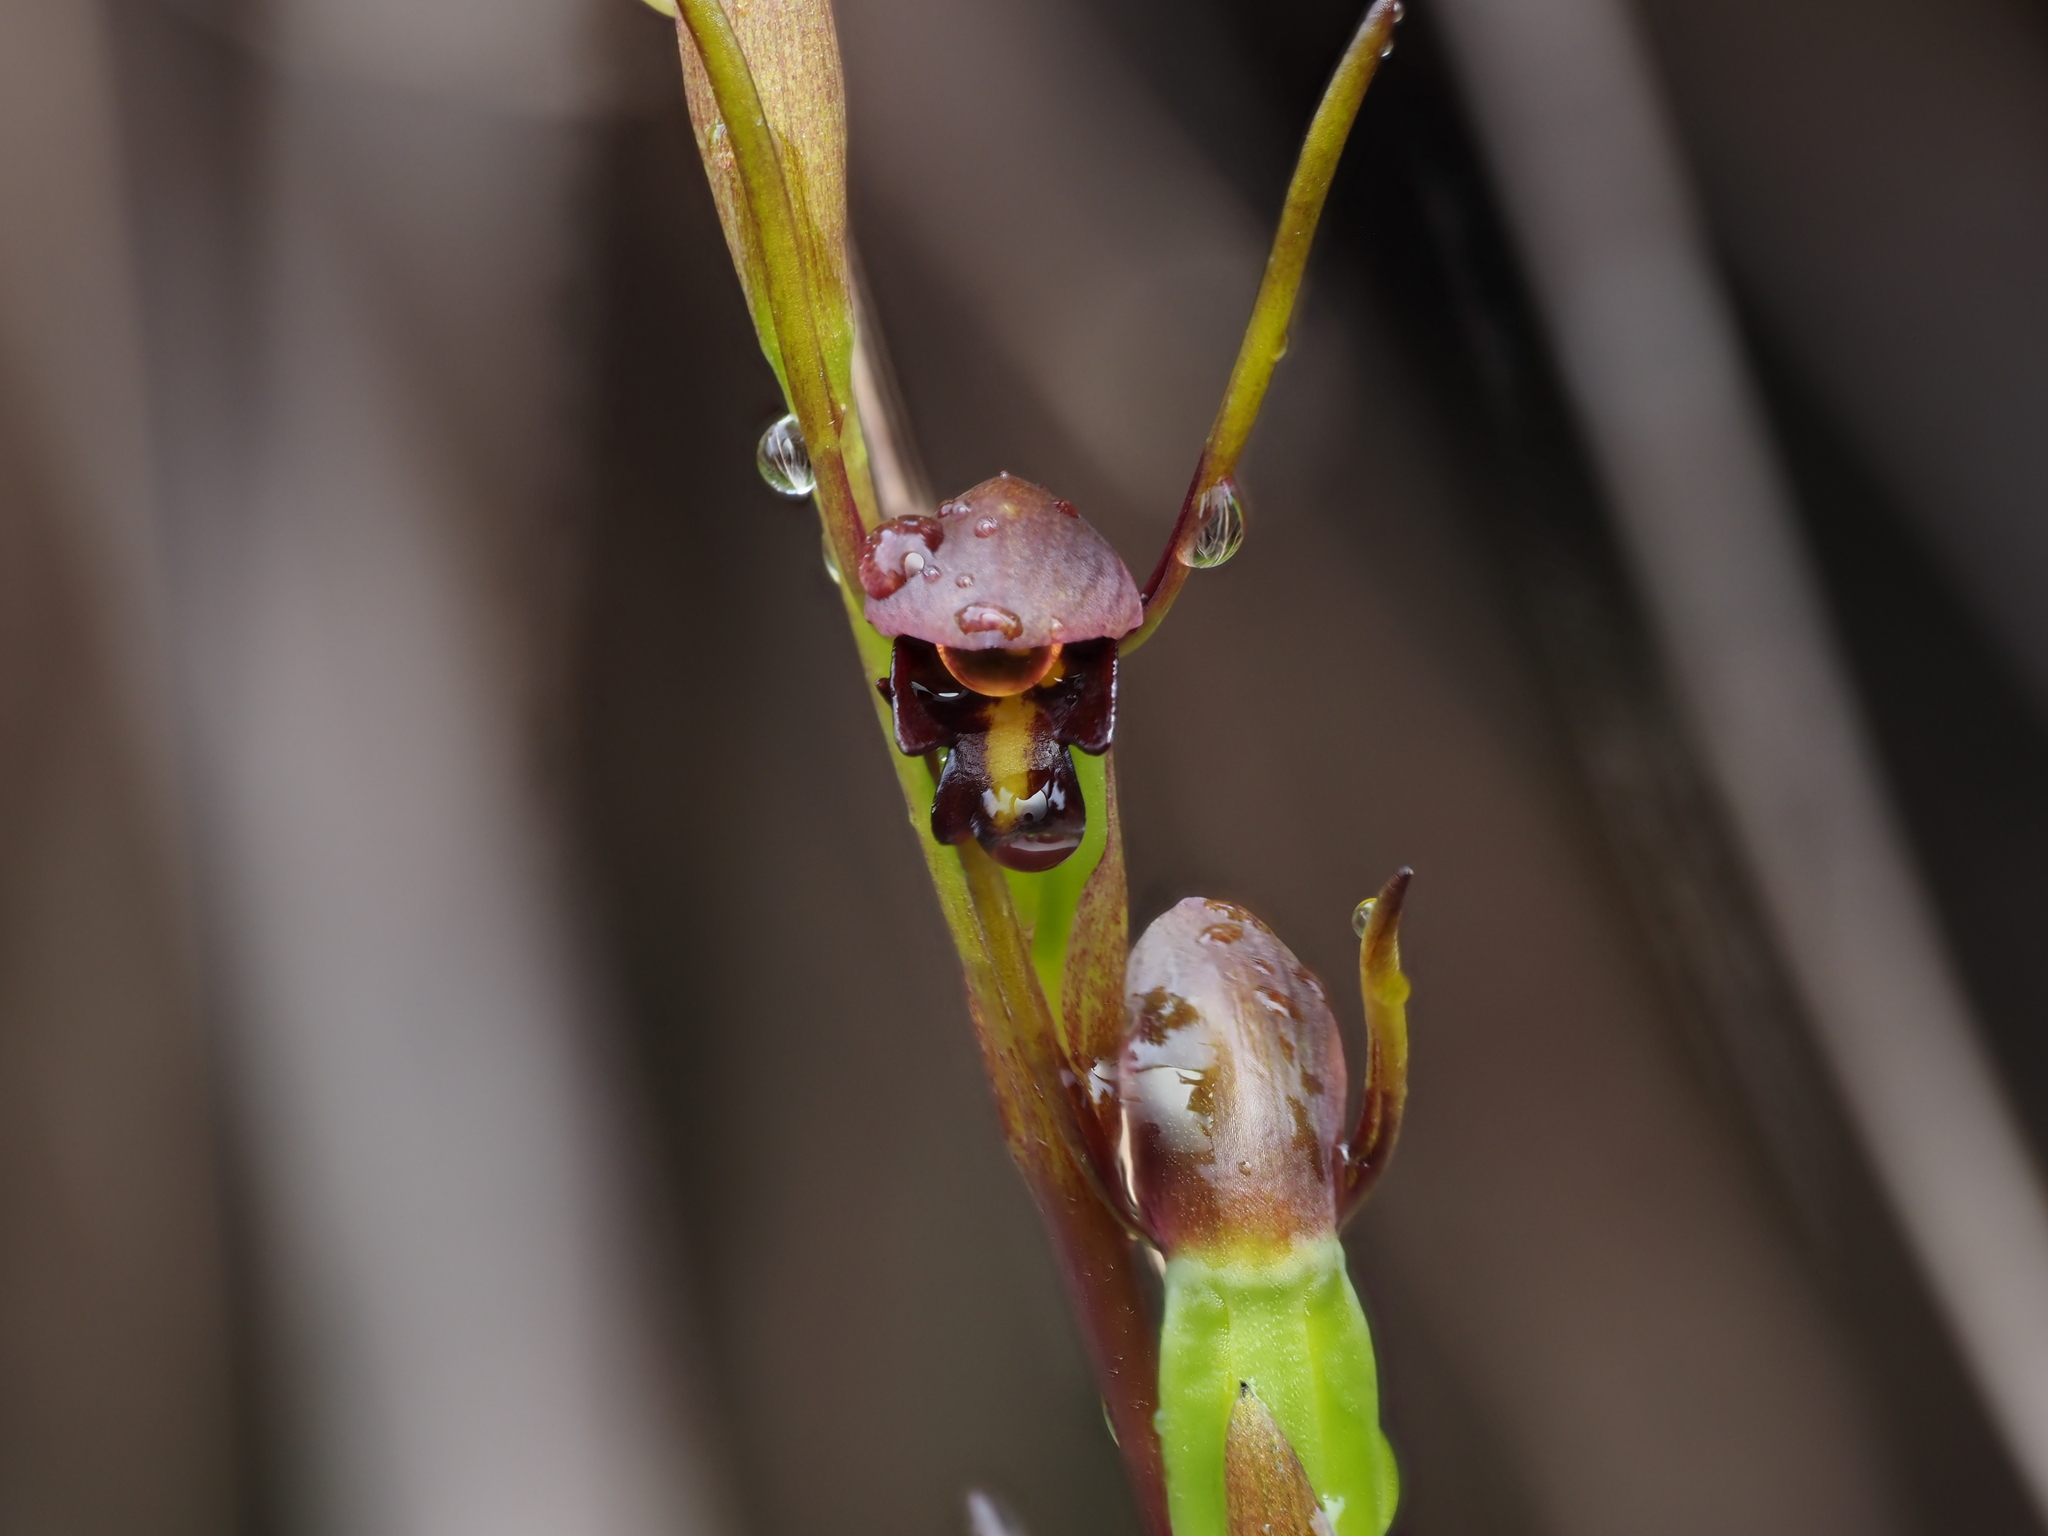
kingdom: Plantae
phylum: Tracheophyta
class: Liliopsida
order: Asparagales
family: Orchidaceae
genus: Orthoceras
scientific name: Orthoceras novae-zeelandiae
